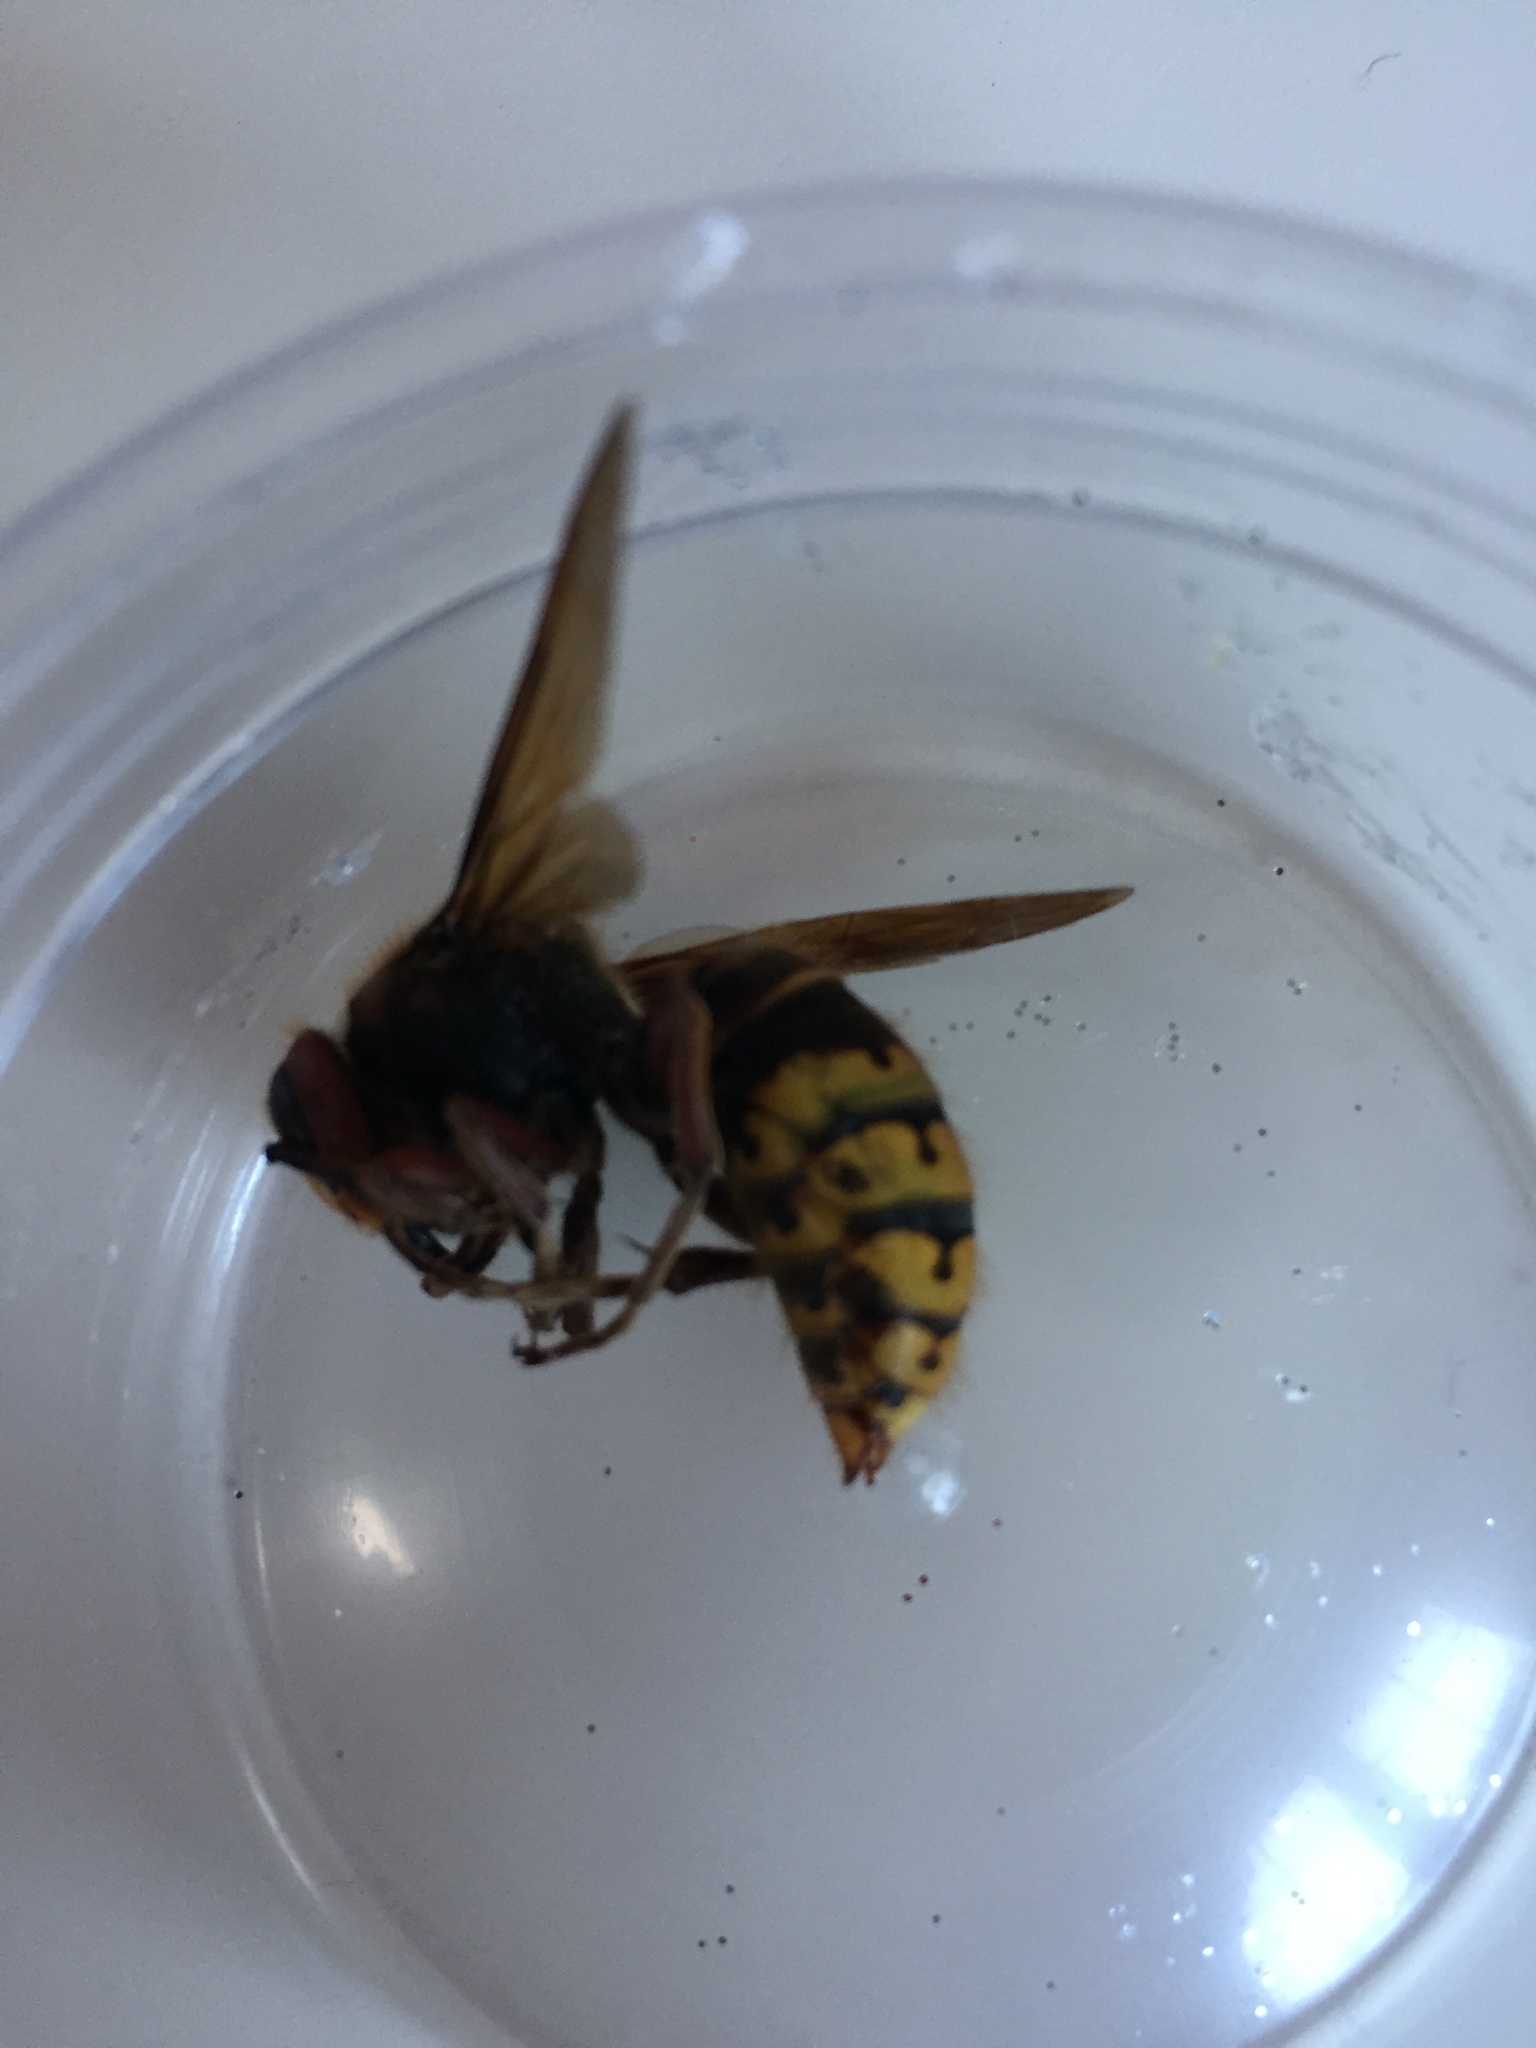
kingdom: Animalia
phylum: Arthropoda
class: Insecta
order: Hymenoptera
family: Vespidae
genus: Vespa
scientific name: Vespa crabro
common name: Hornet
